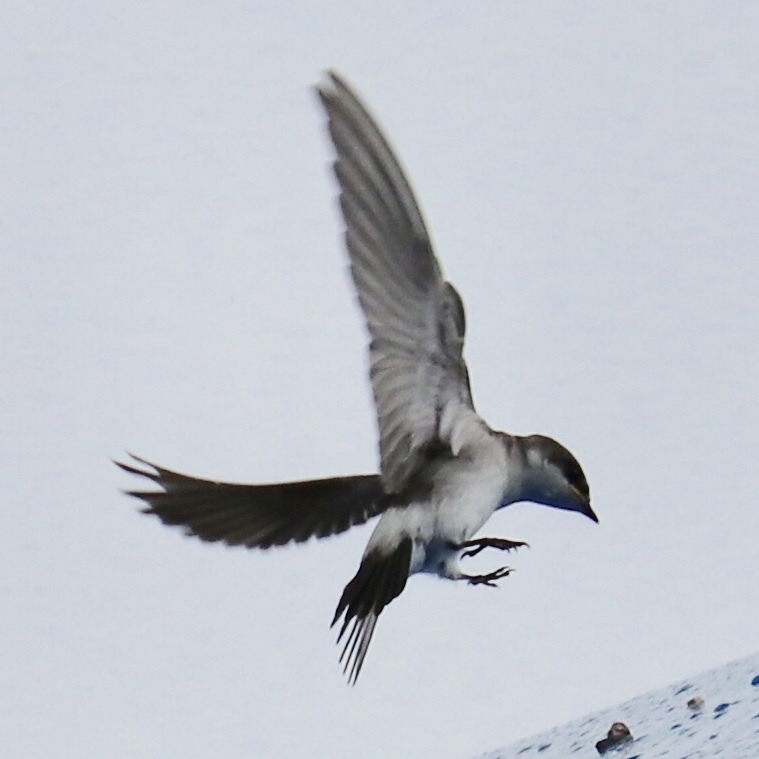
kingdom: Animalia
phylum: Chordata
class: Aves
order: Passeriformes
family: Hirundinidae
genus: Tachycineta
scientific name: Tachycineta albilinea
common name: Mangrove swallow
